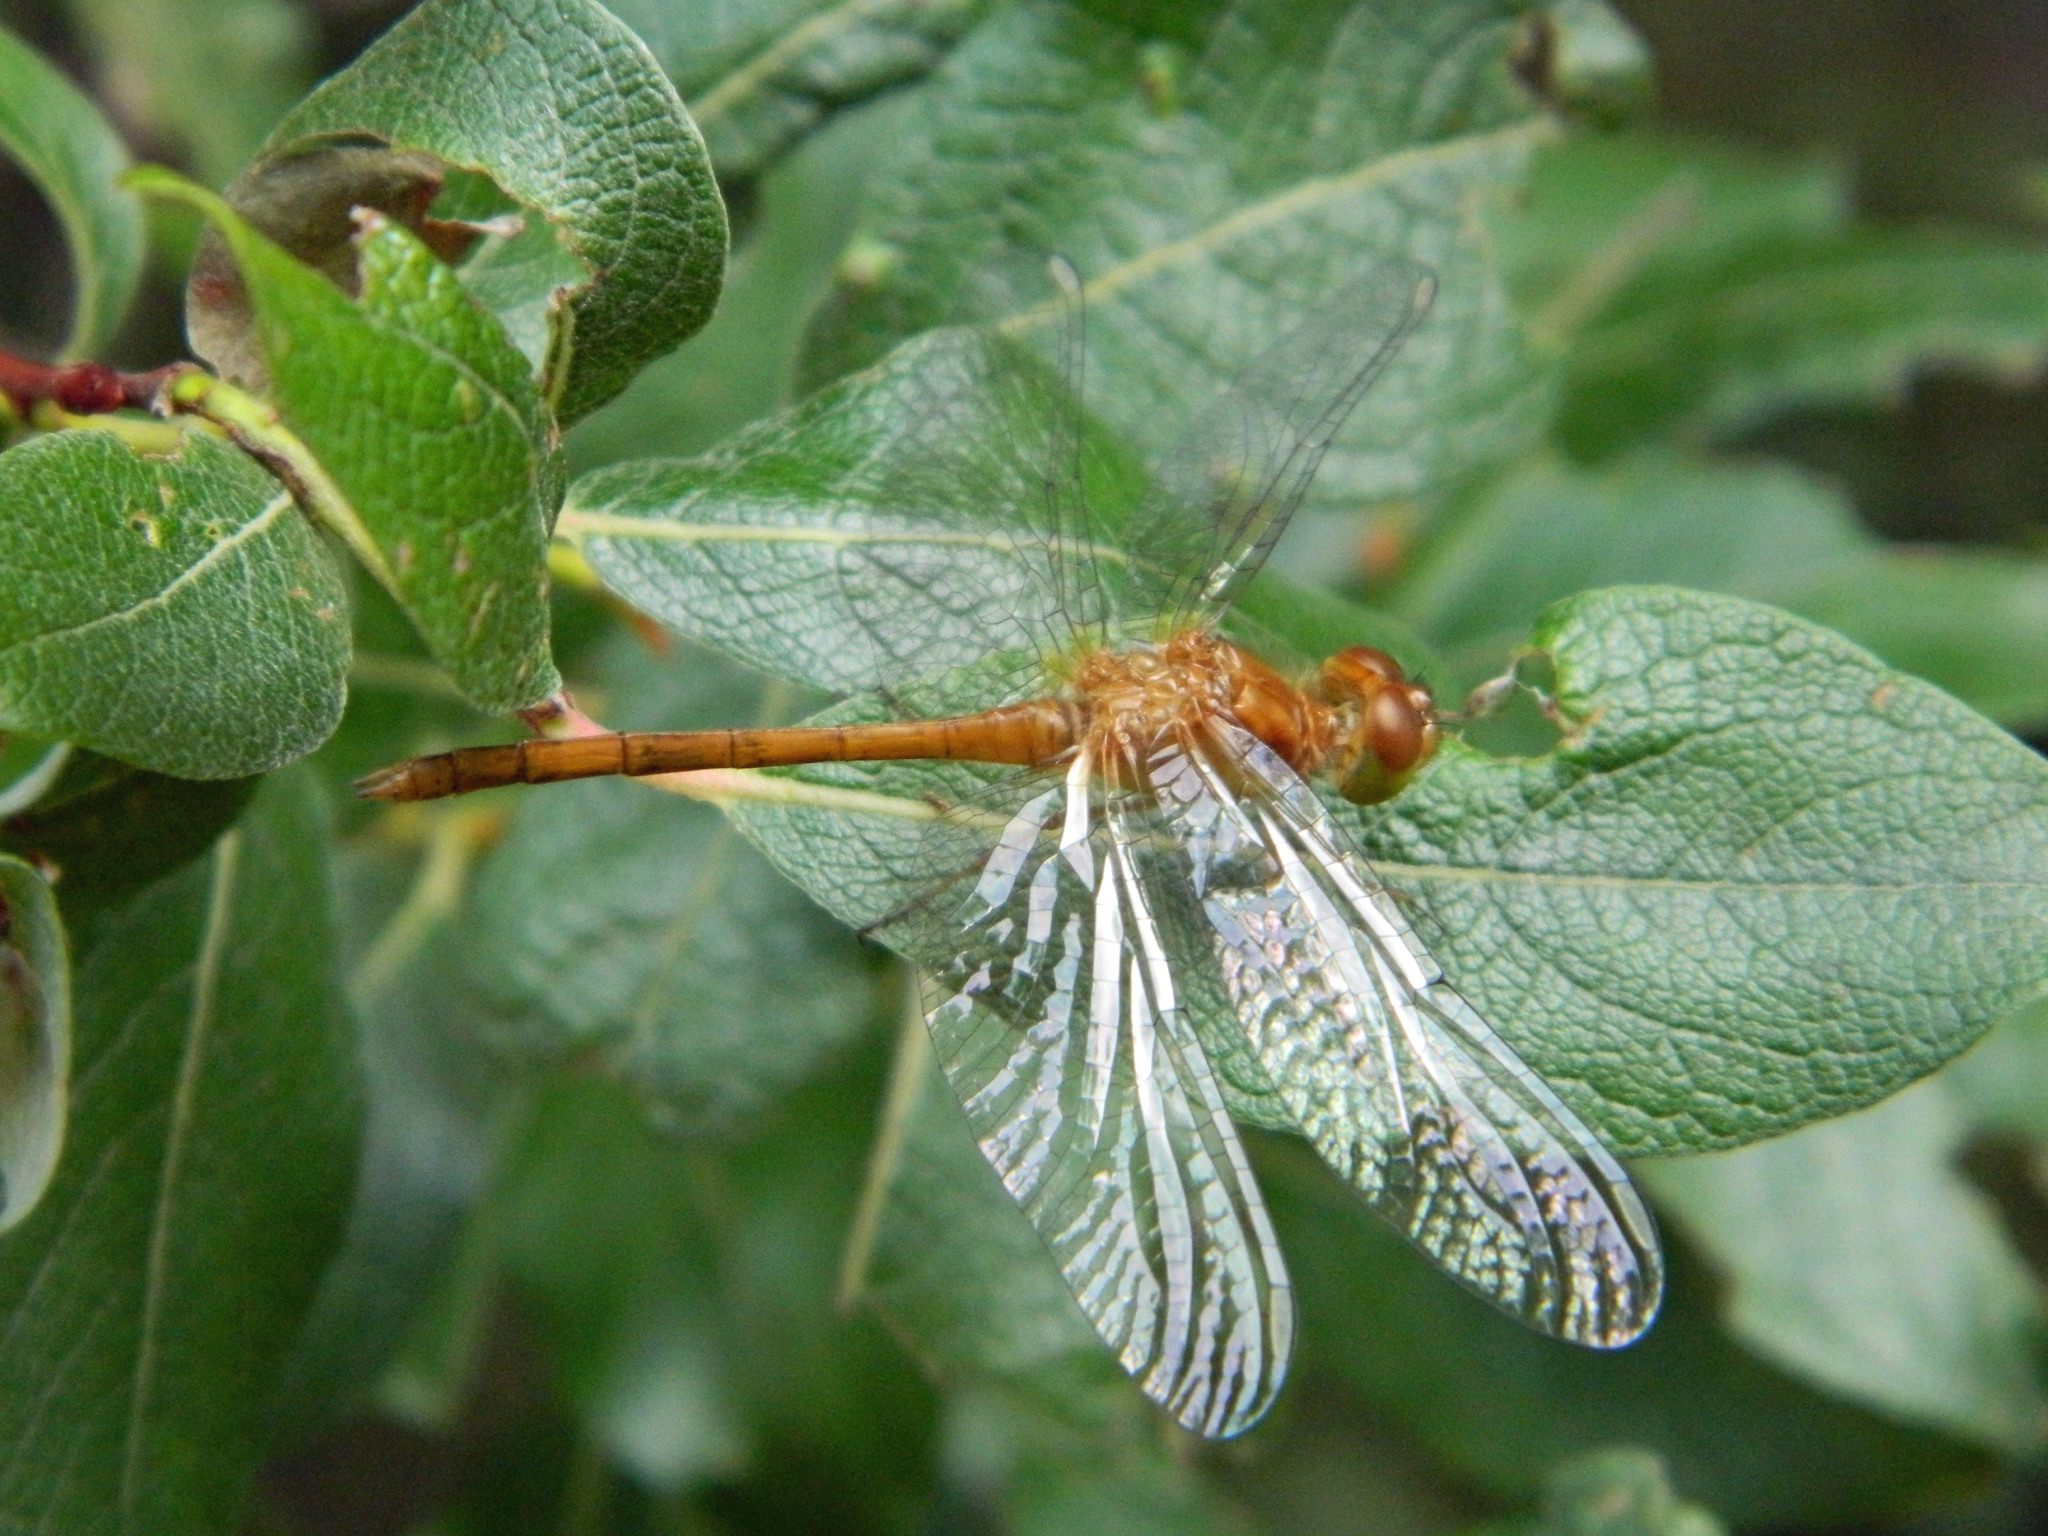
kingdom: Animalia
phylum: Arthropoda
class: Insecta
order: Odonata
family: Libellulidae
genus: Sympetrum
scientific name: Sympetrum vicinum
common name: Autumn meadowhawk
